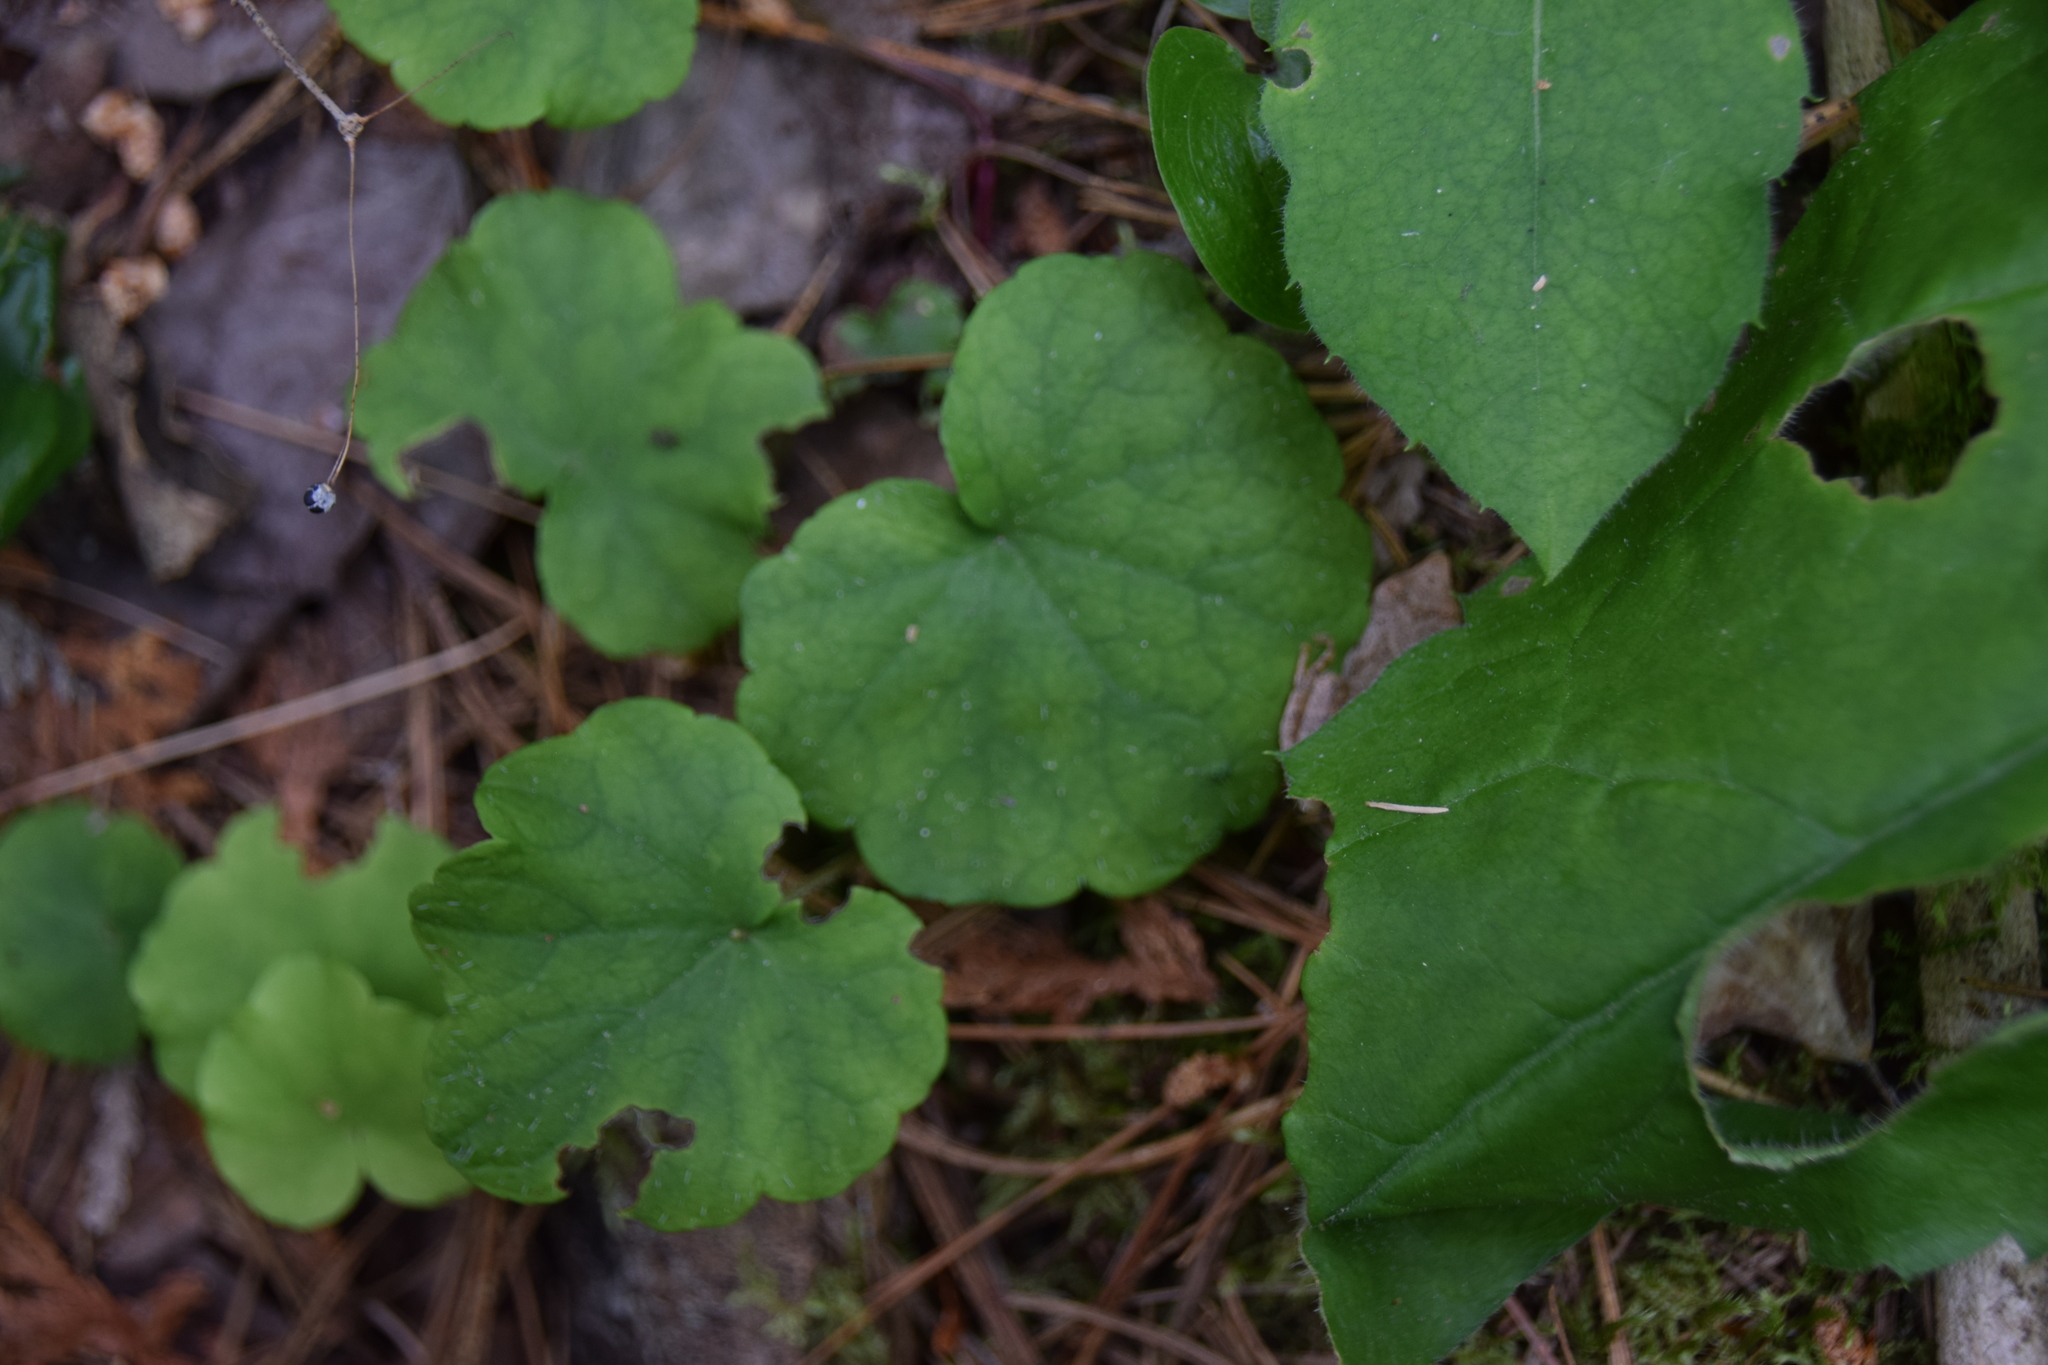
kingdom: Plantae
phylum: Tracheophyta
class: Magnoliopsida
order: Saxifragales
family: Saxifragaceae
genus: Mitella
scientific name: Mitella nuda
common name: Bare-stemmed bishop's-cap
